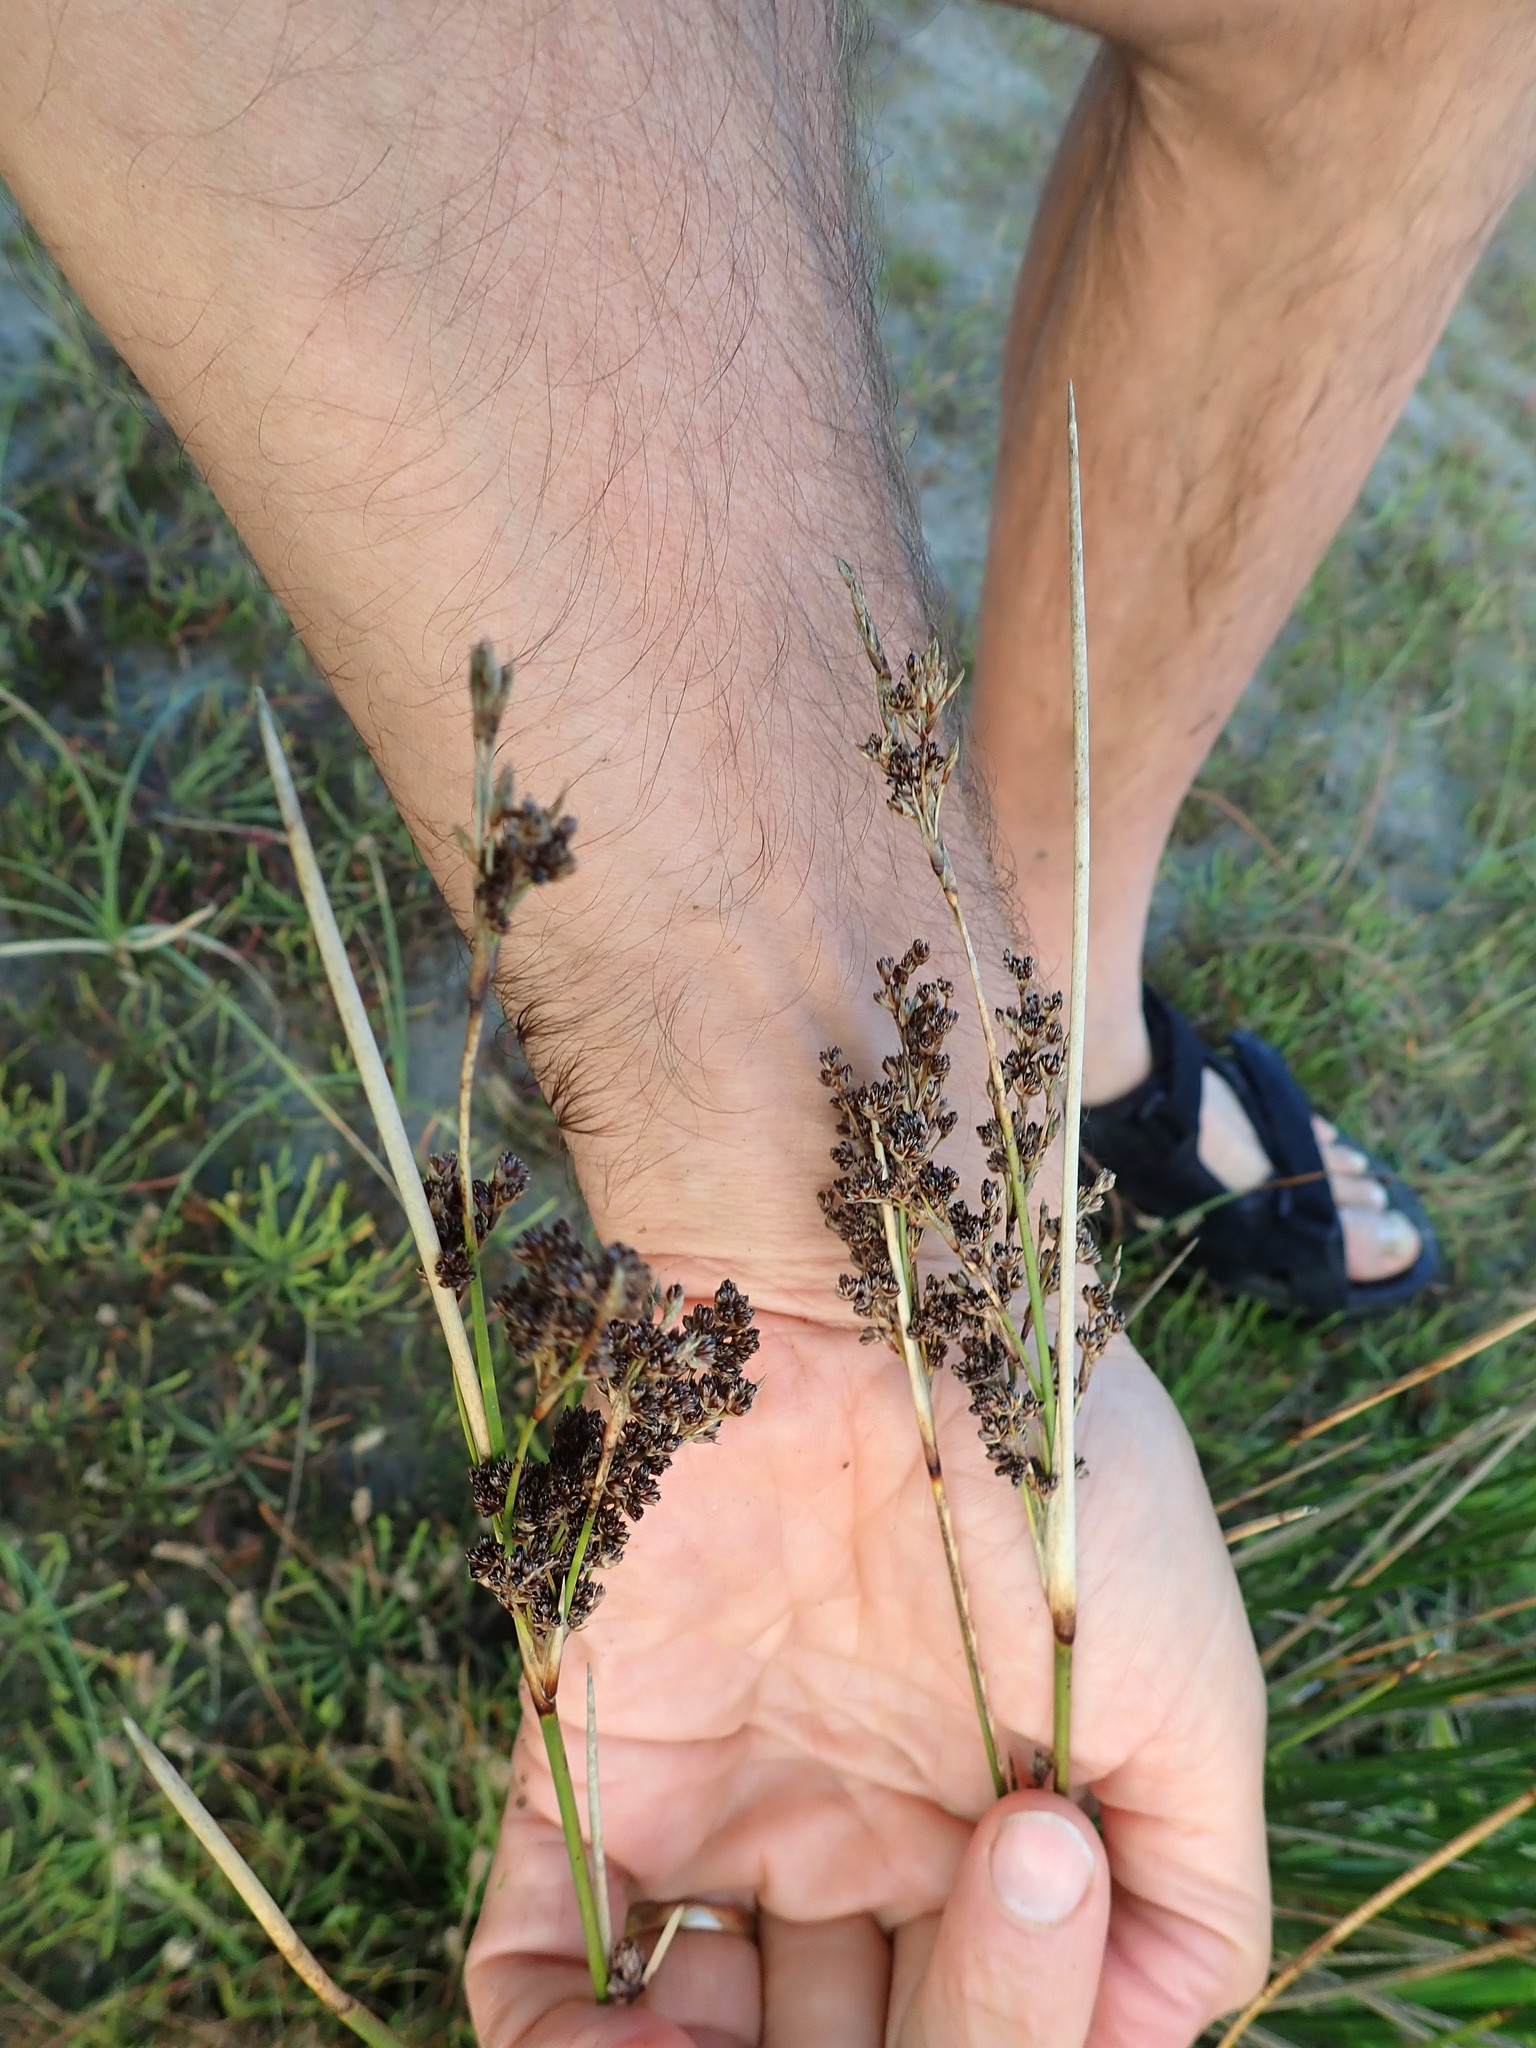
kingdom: Plantae
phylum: Tracheophyta
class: Liliopsida
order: Poales
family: Juncaceae
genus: Juncus
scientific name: Juncus kraussii
